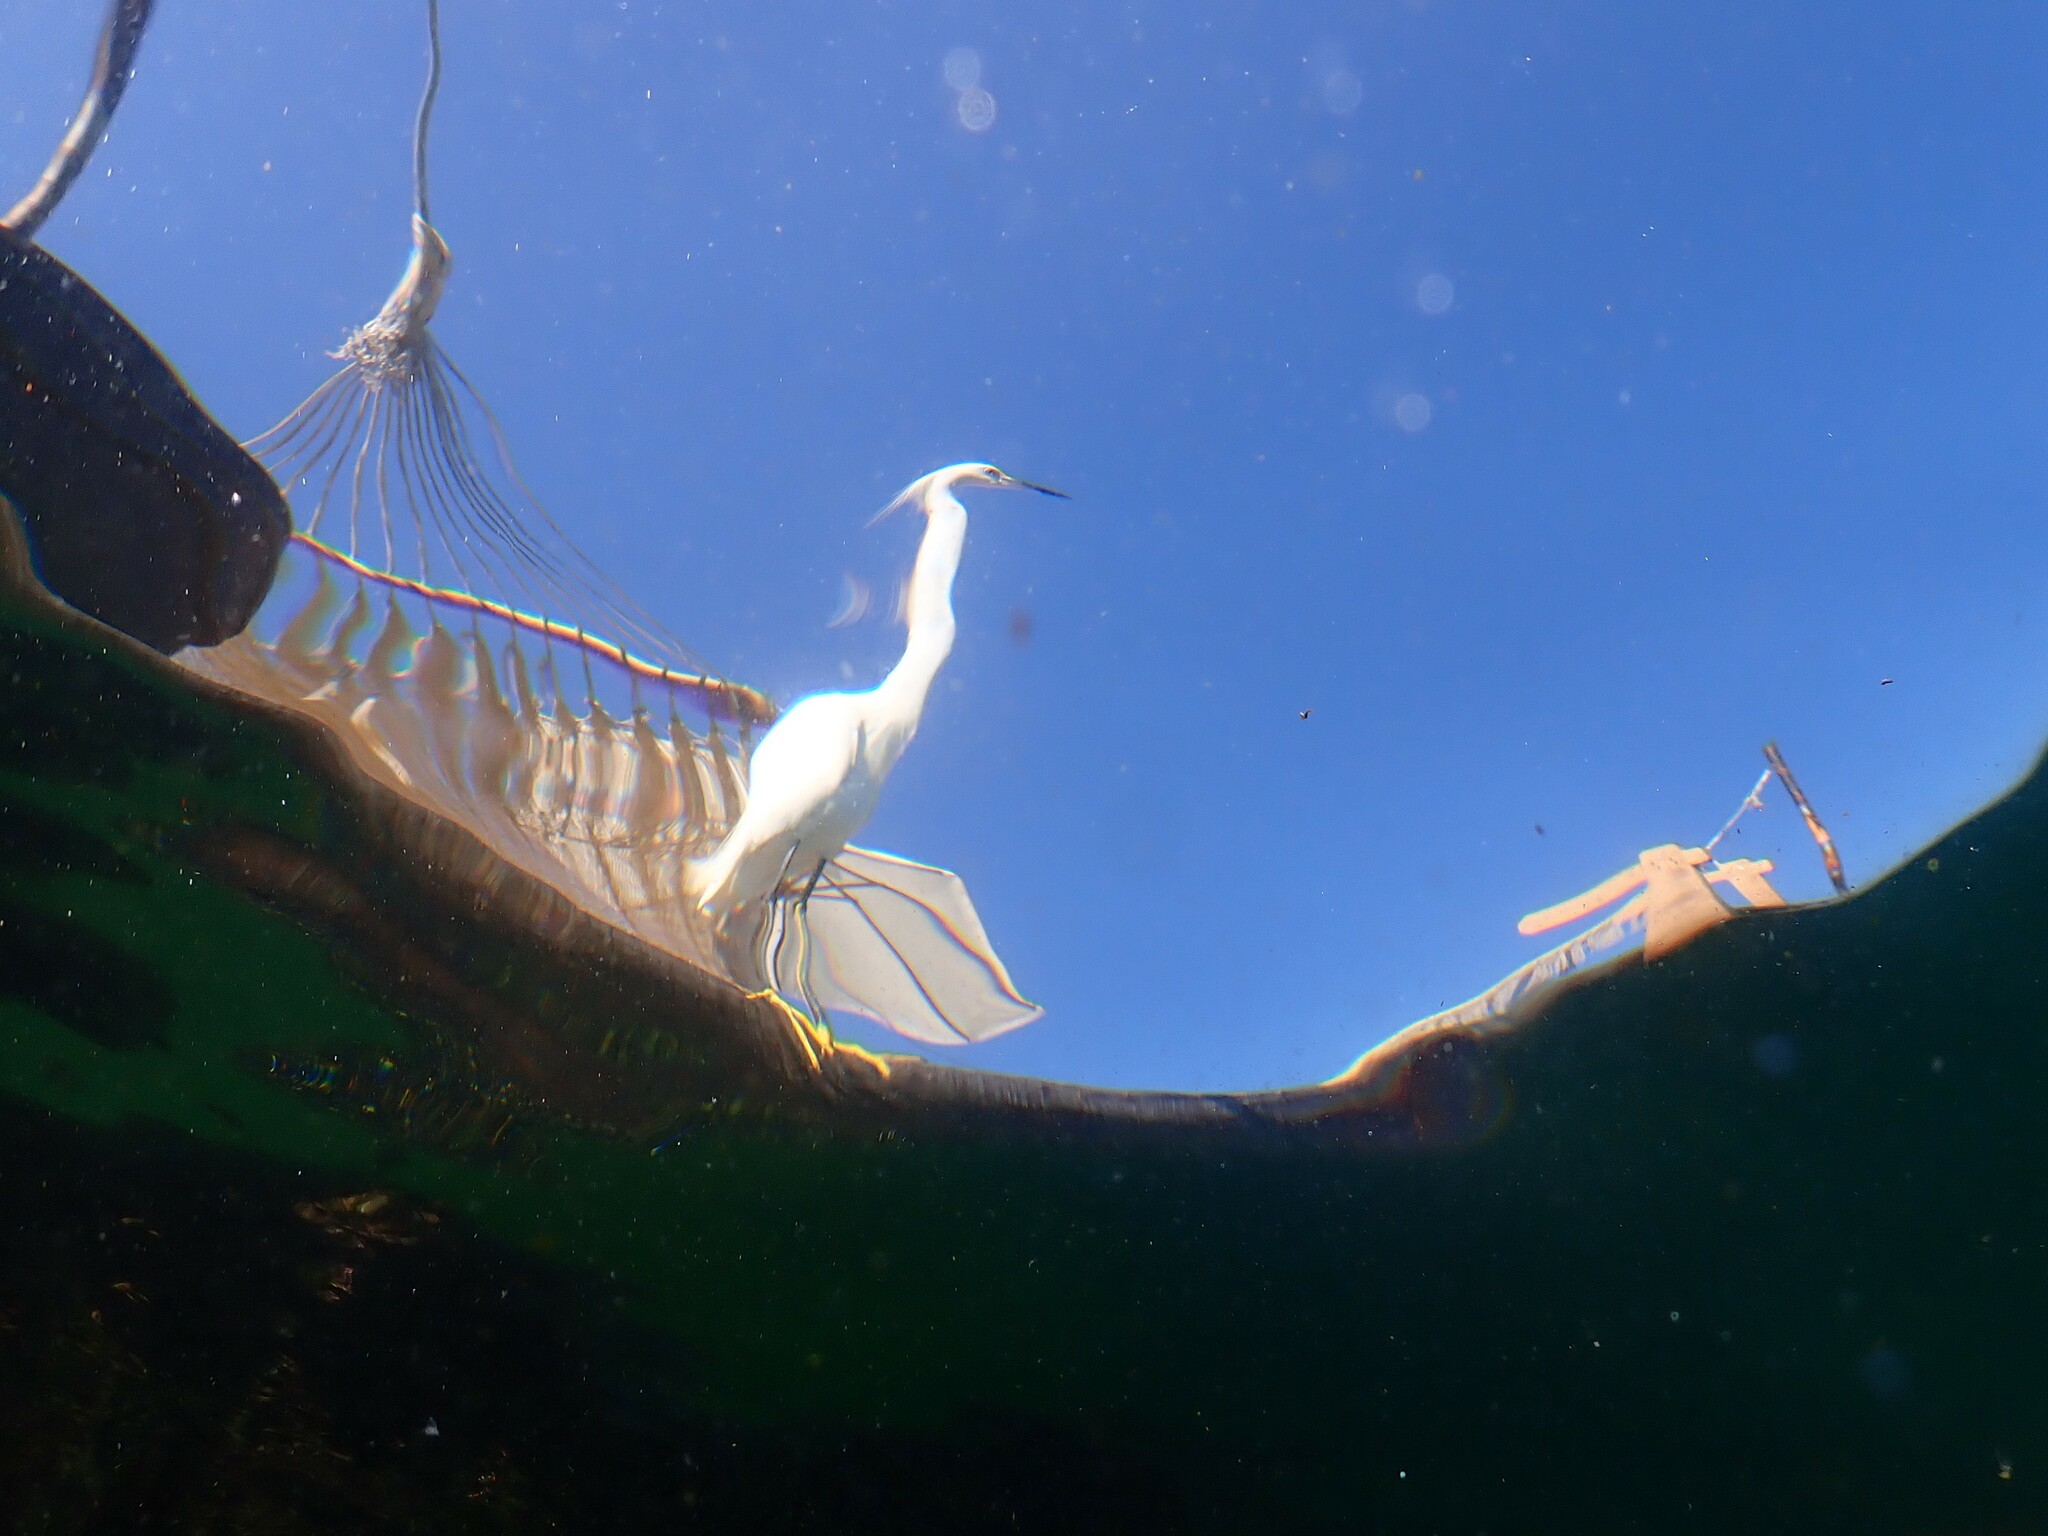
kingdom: Animalia
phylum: Chordata
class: Aves
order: Pelecaniformes
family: Ardeidae
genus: Egretta
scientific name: Egretta thula
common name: Snowy egret
